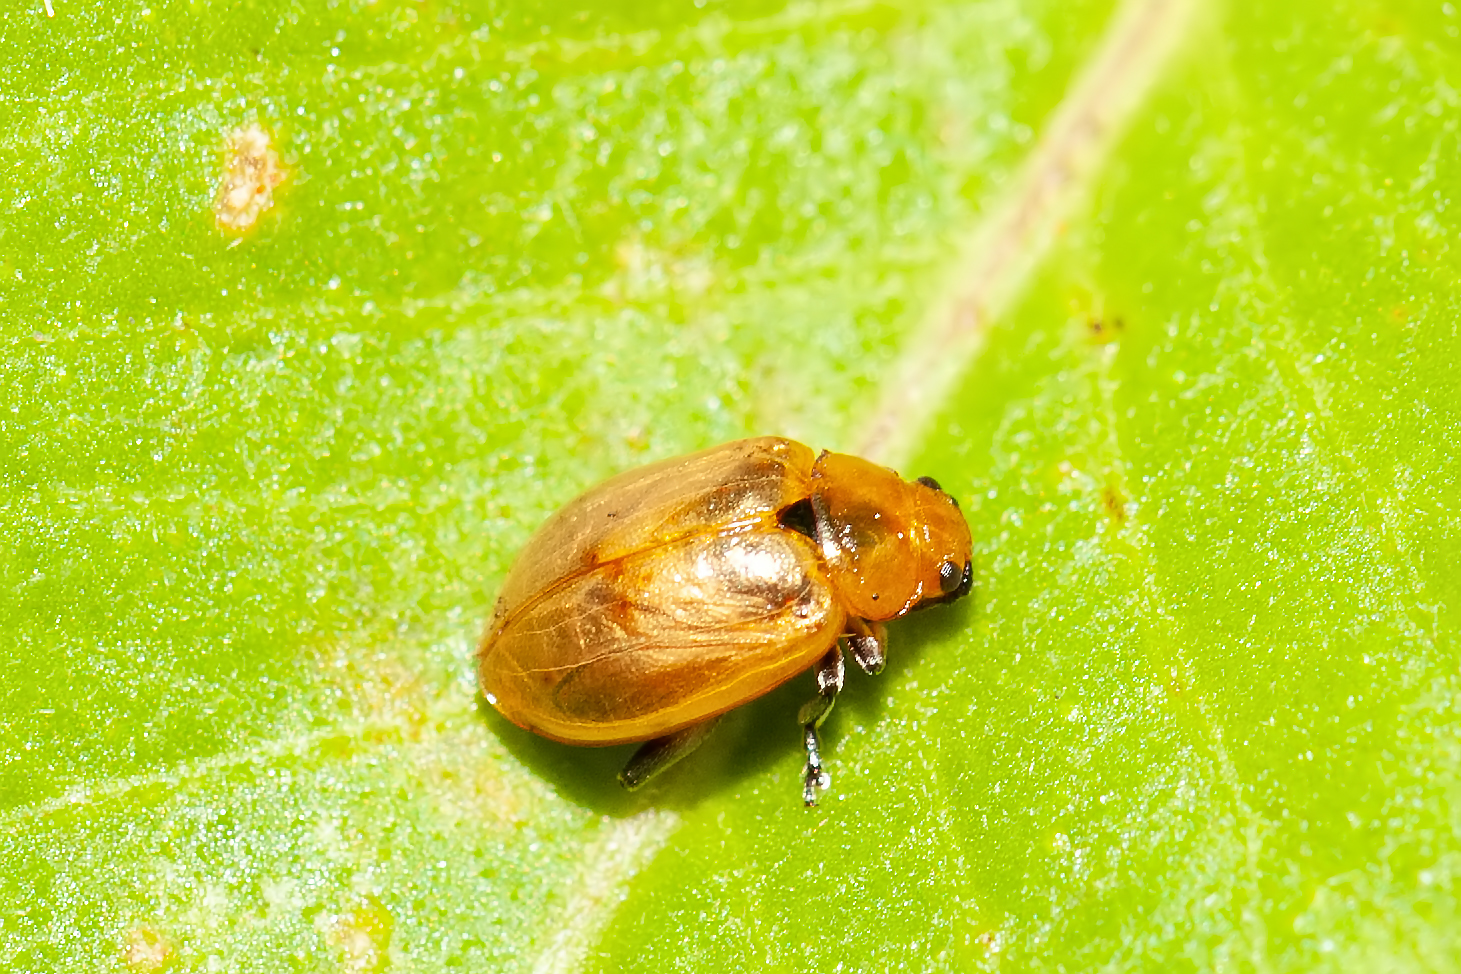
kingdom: Animalia
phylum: Arthropoda
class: Insecta
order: Coleoptera
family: Chrysomelidae
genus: Strabala
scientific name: Strabala rufa
